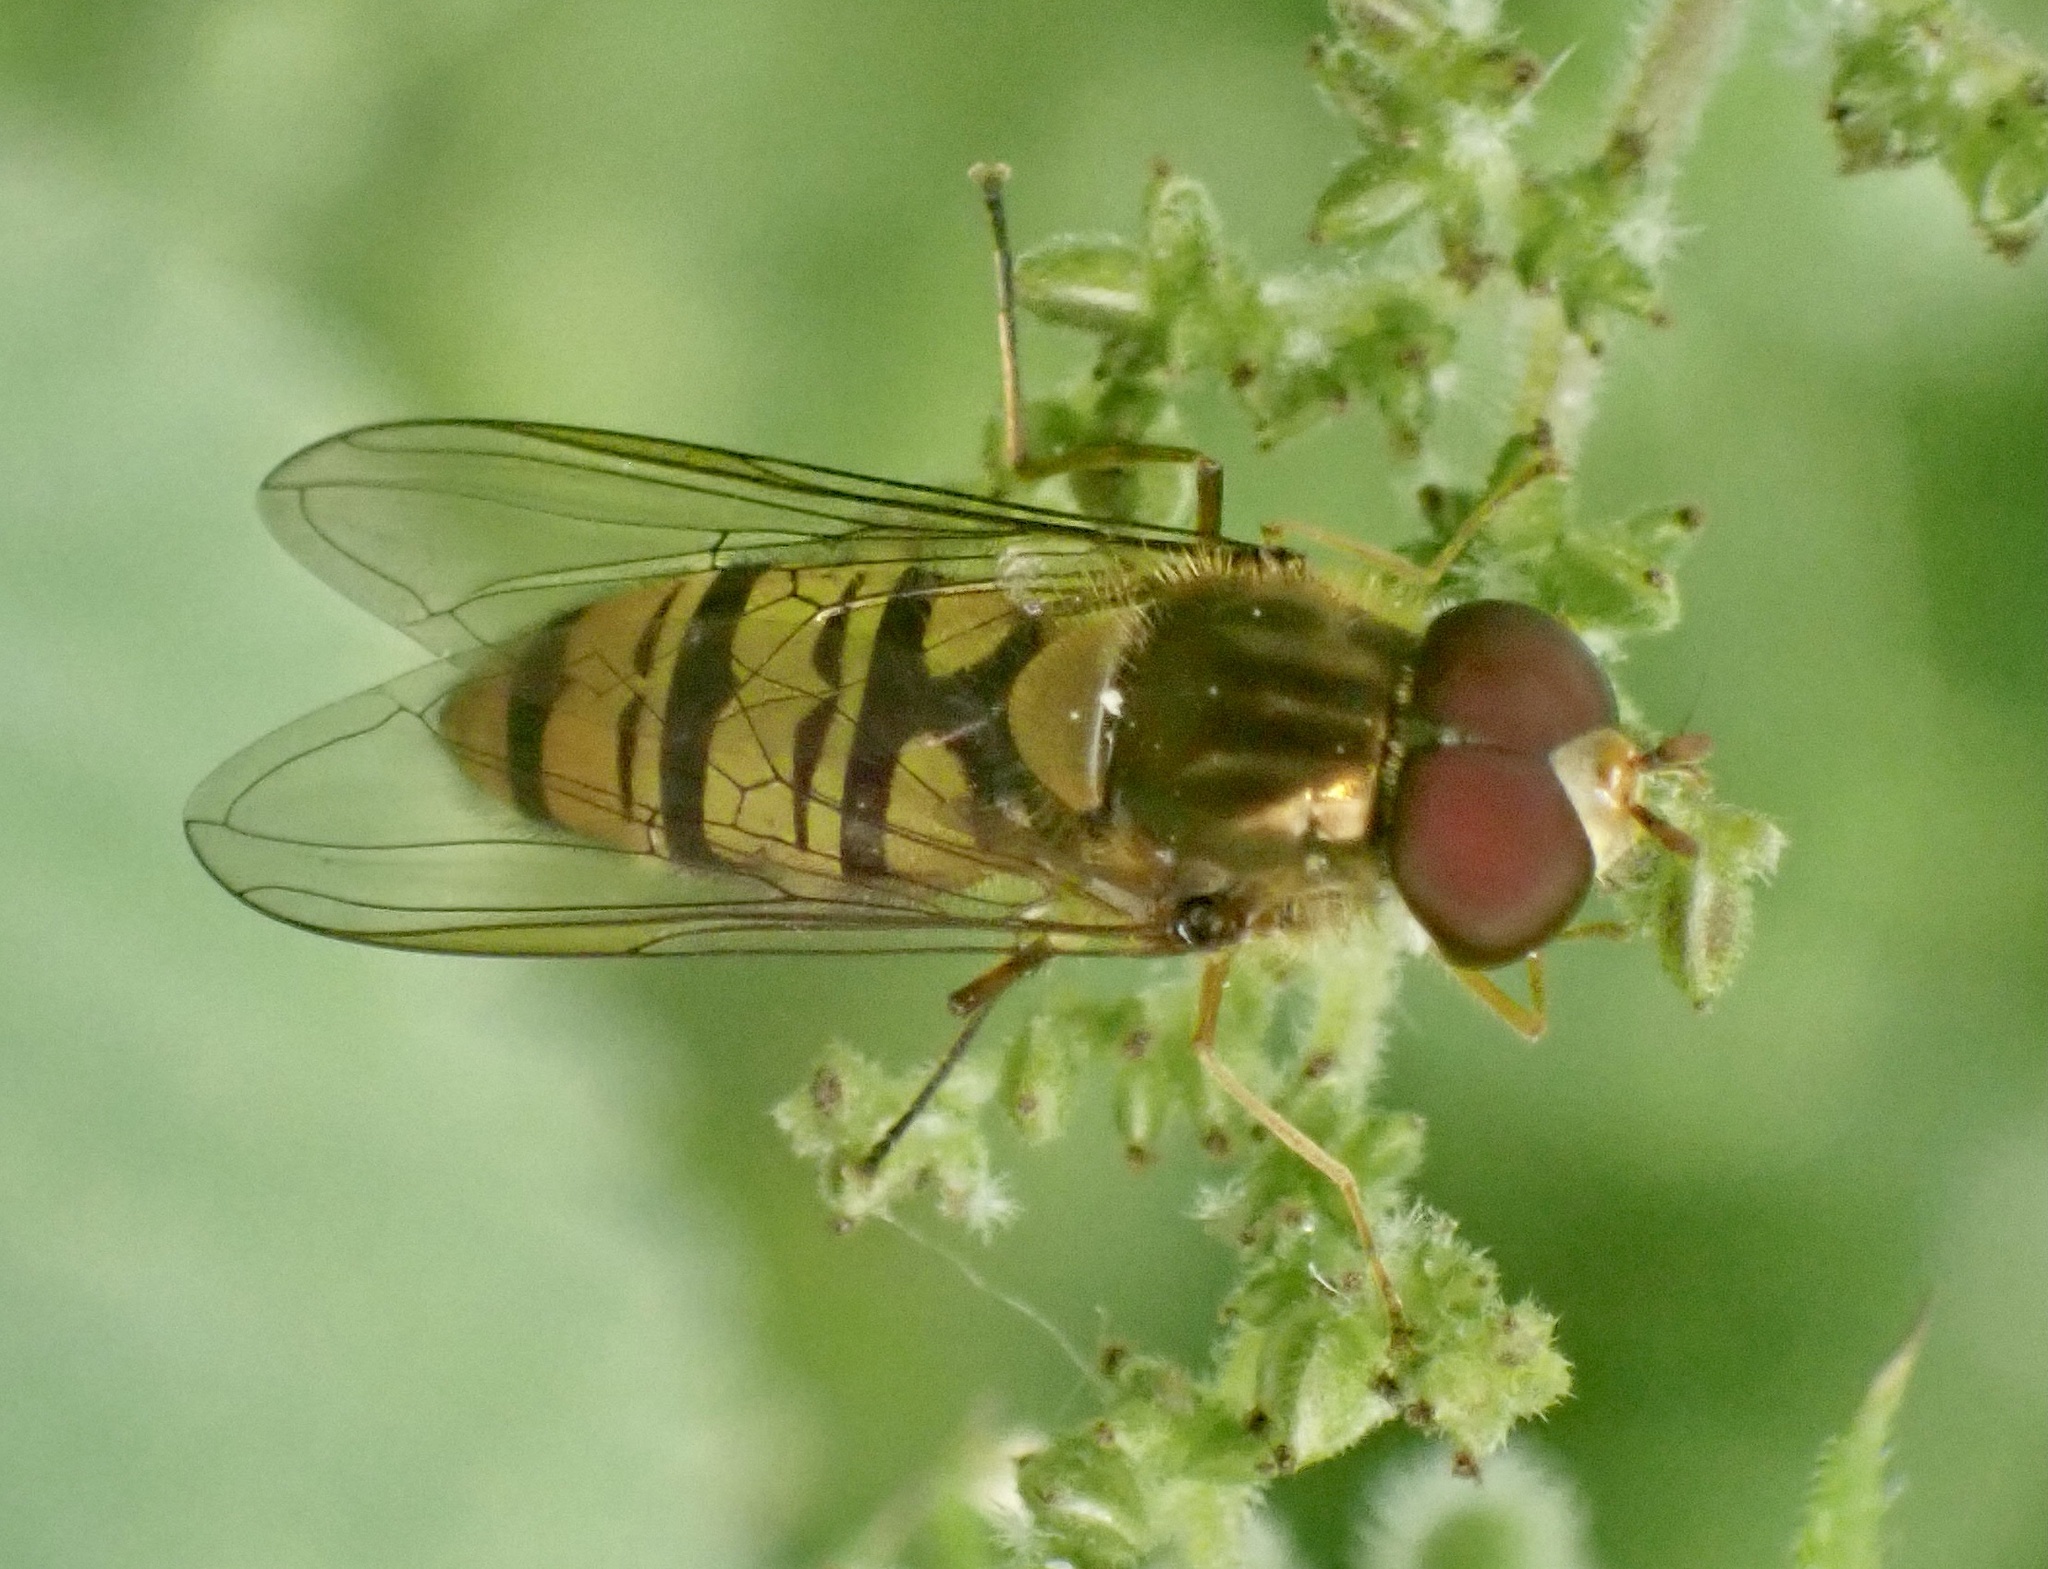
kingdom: Animalia
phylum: Arthropoda
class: Insecta
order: Diptera
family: Syrphidae
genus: Episyrphus
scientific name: Episyrphus balteatus
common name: Marmalade hoverfly
